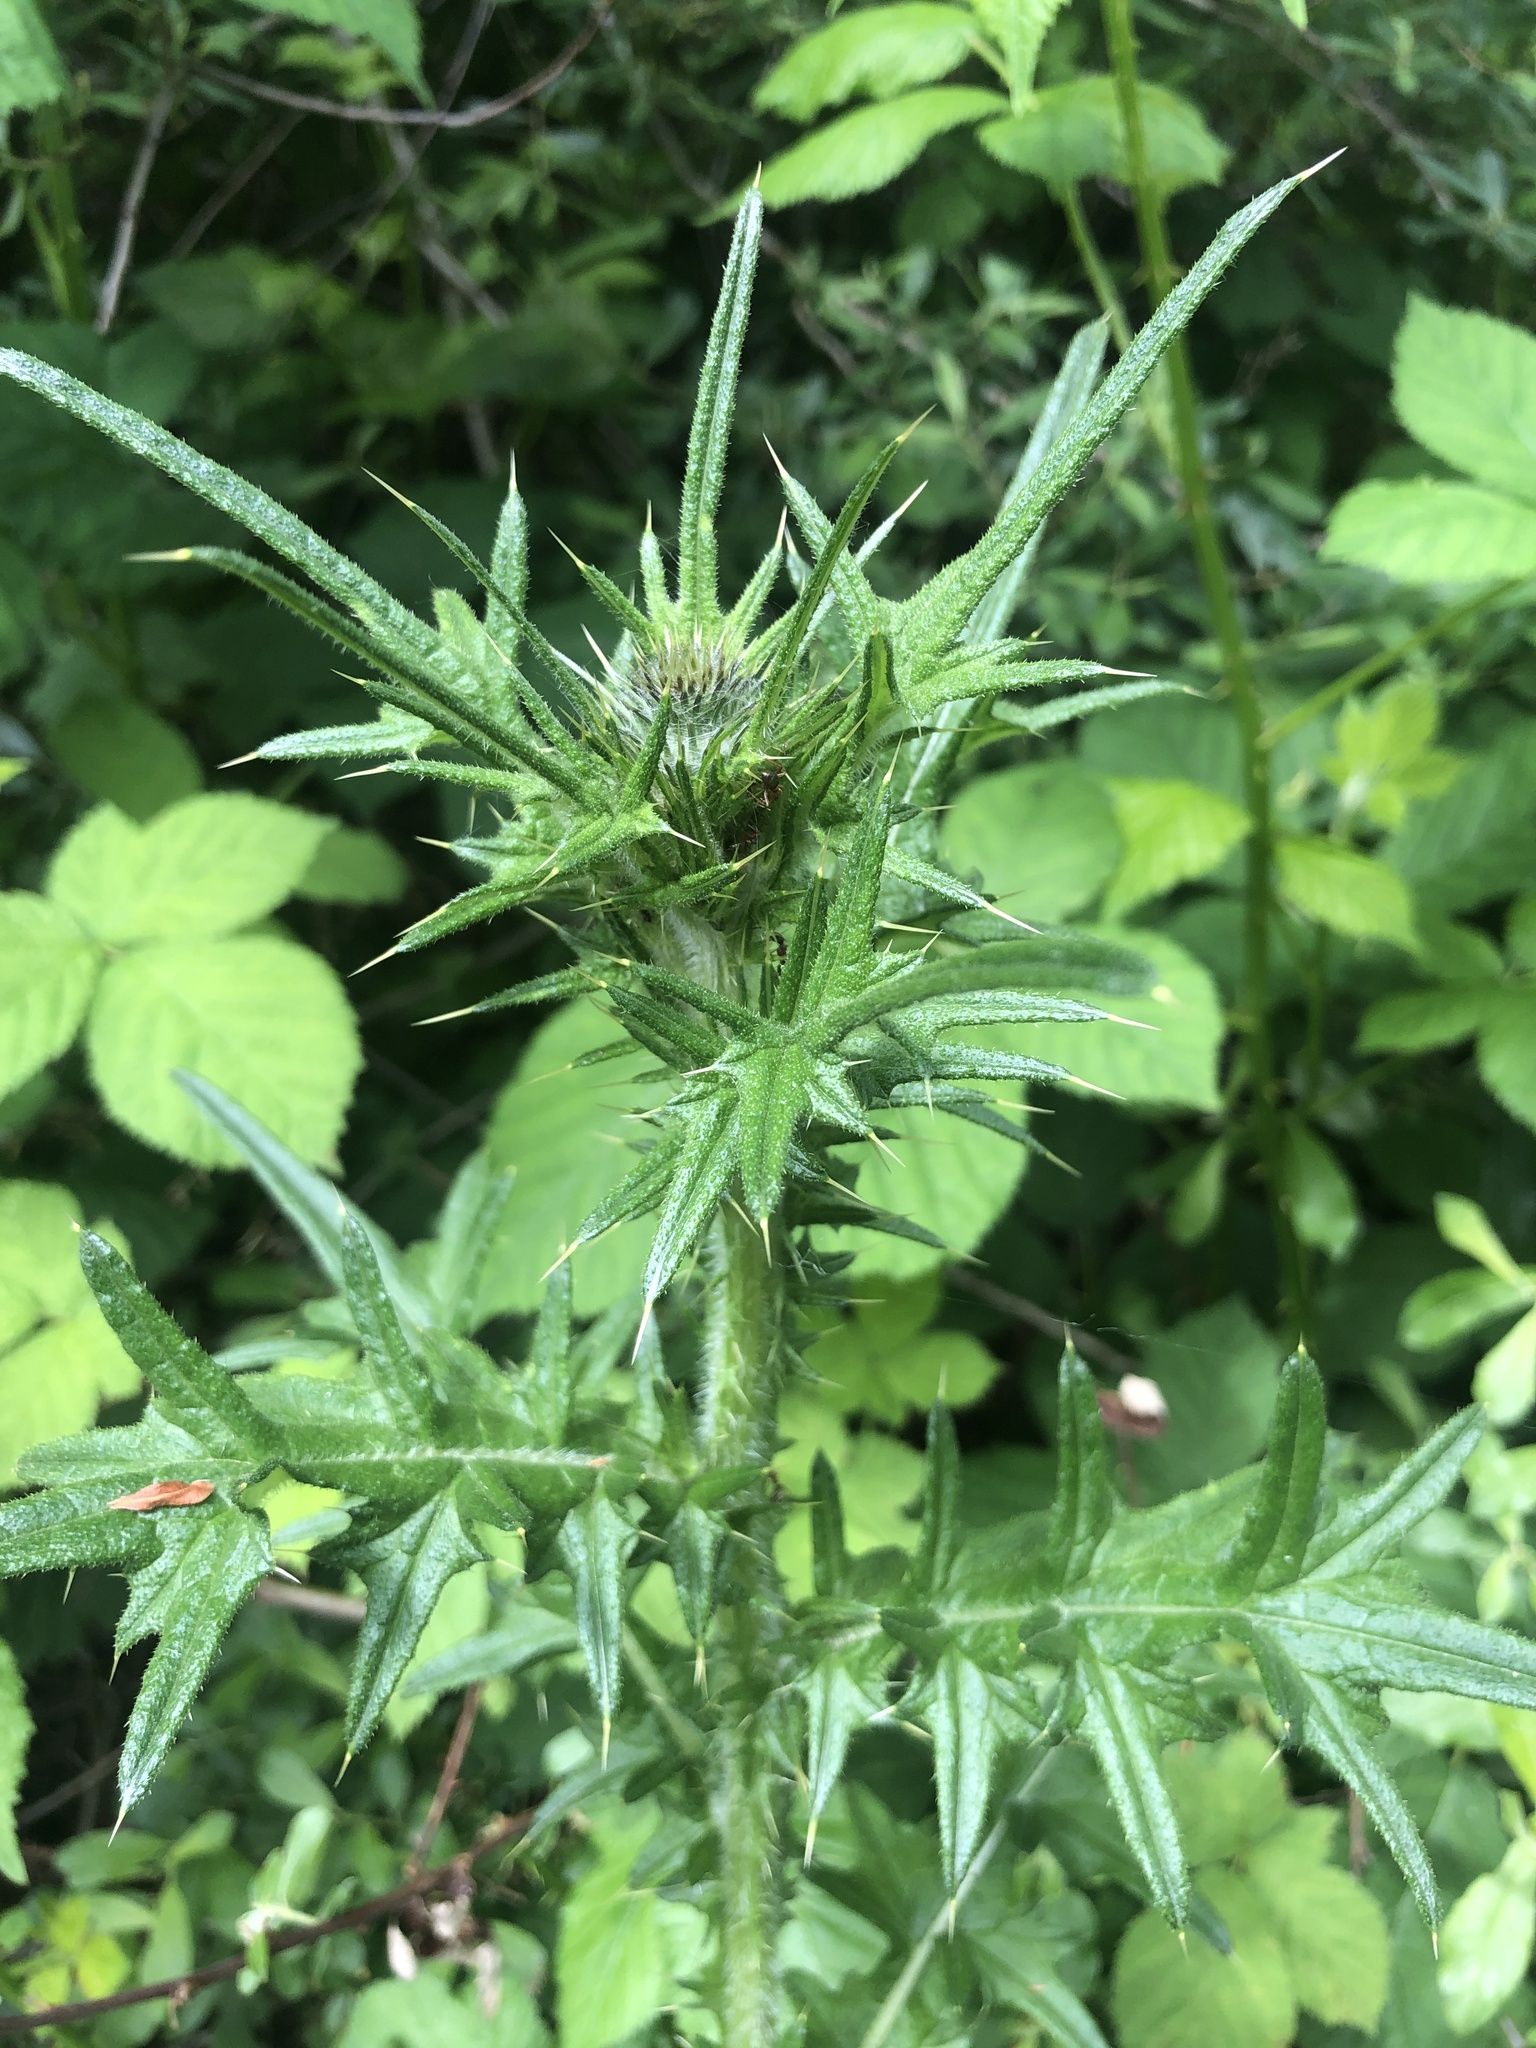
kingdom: Plantae
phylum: Tracheophyta
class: Magnoliopsida
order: Asterales
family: Asteraceae
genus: Cirsium
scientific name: Cirsium vulgare
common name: Bull thistle
